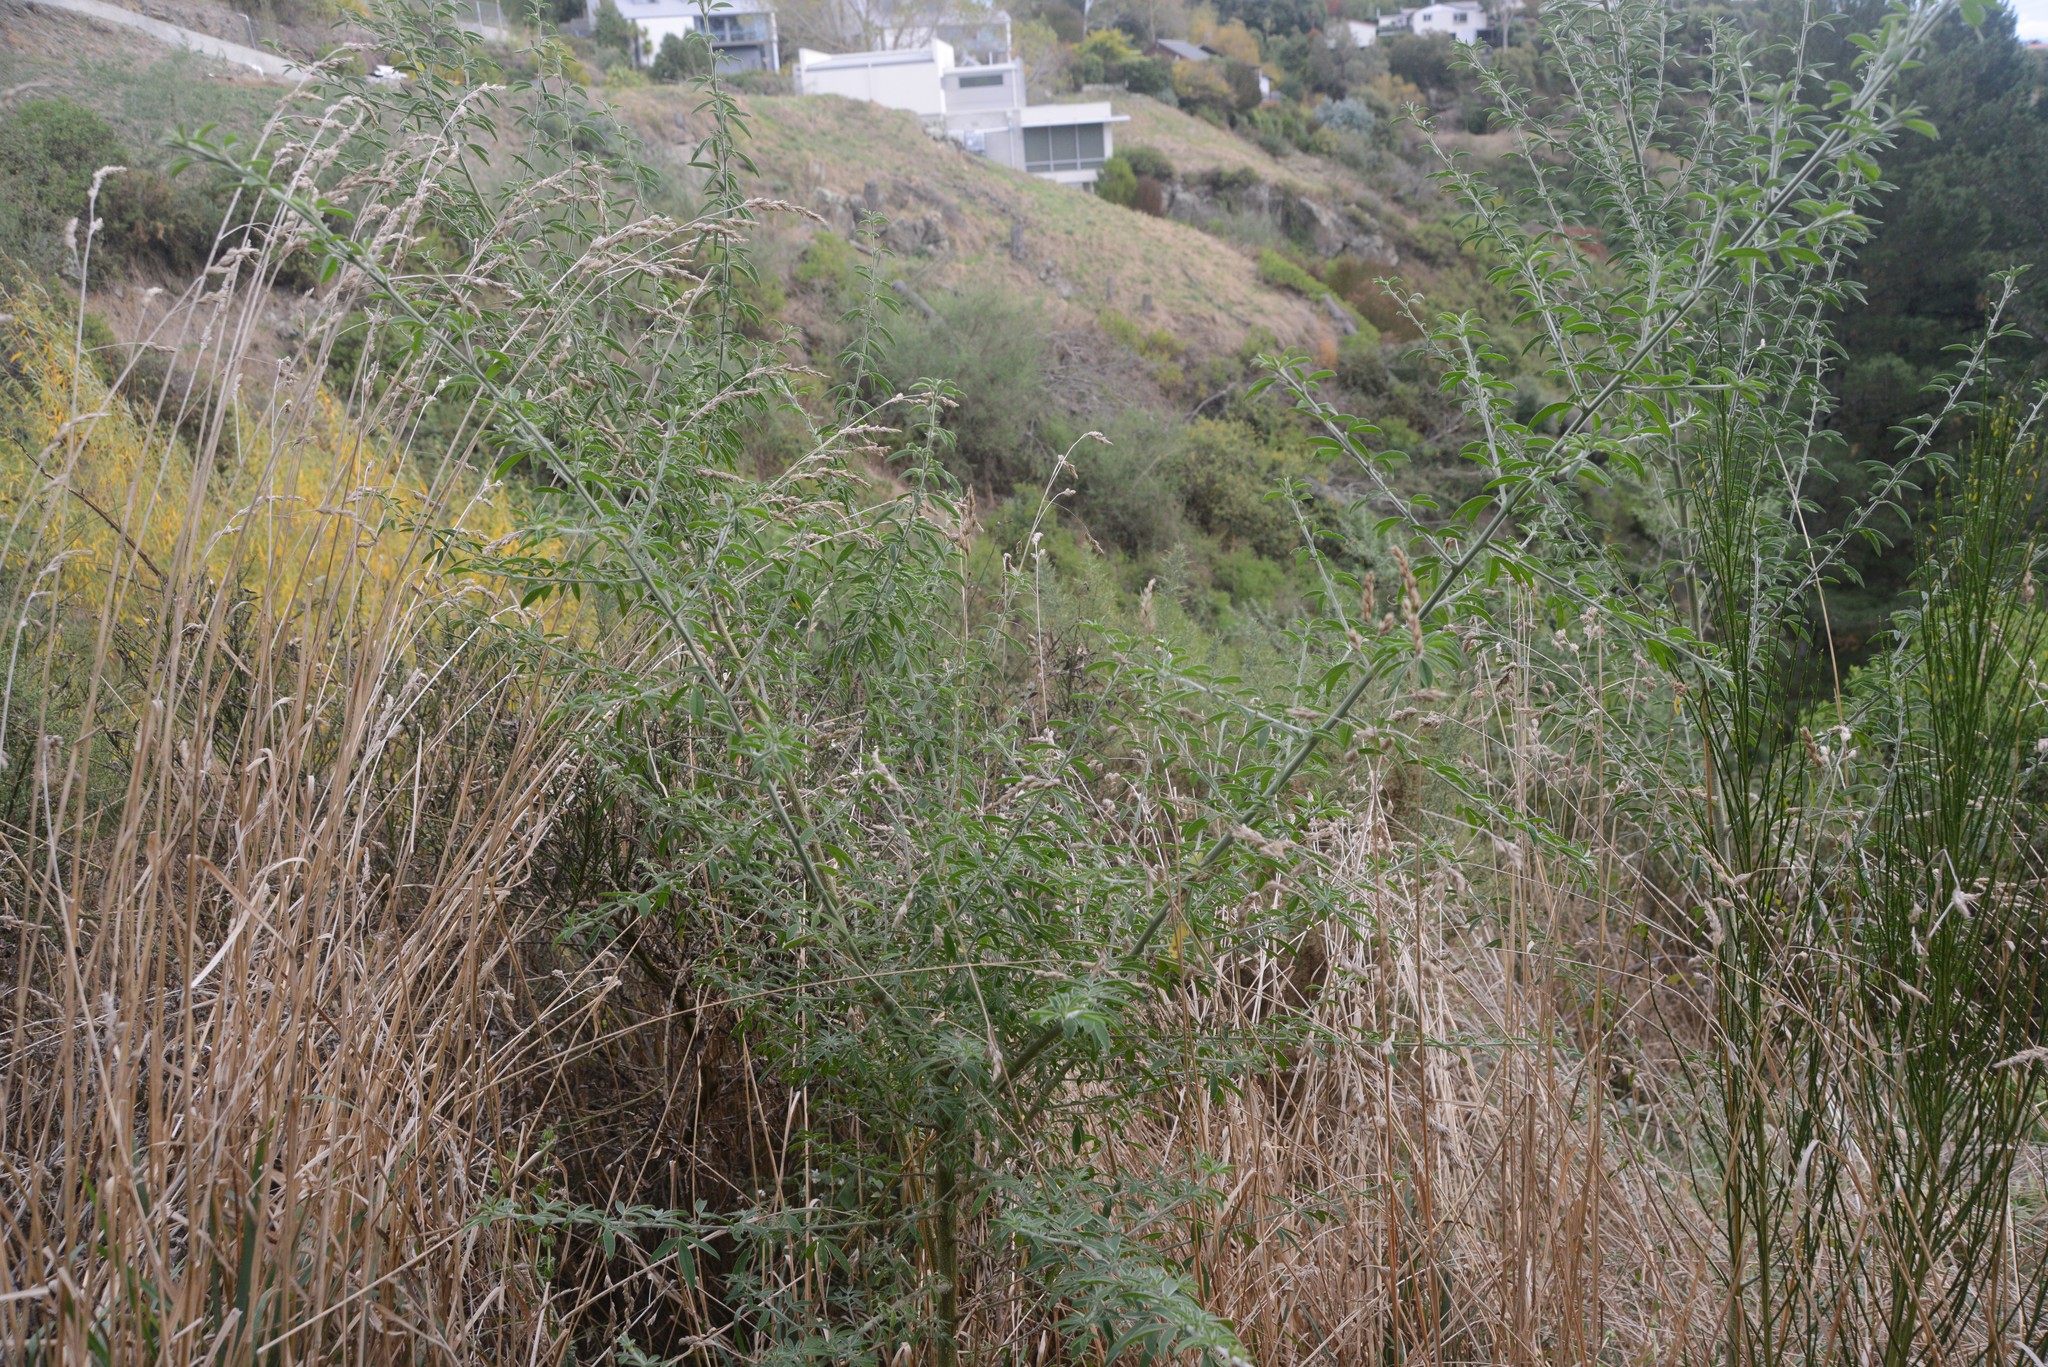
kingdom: Plantae
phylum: Tracheophyta
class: Magnoliopsida
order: Fabales
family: Fabaceae
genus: Chamaecytisus
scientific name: Chamaecytisus prolifer
